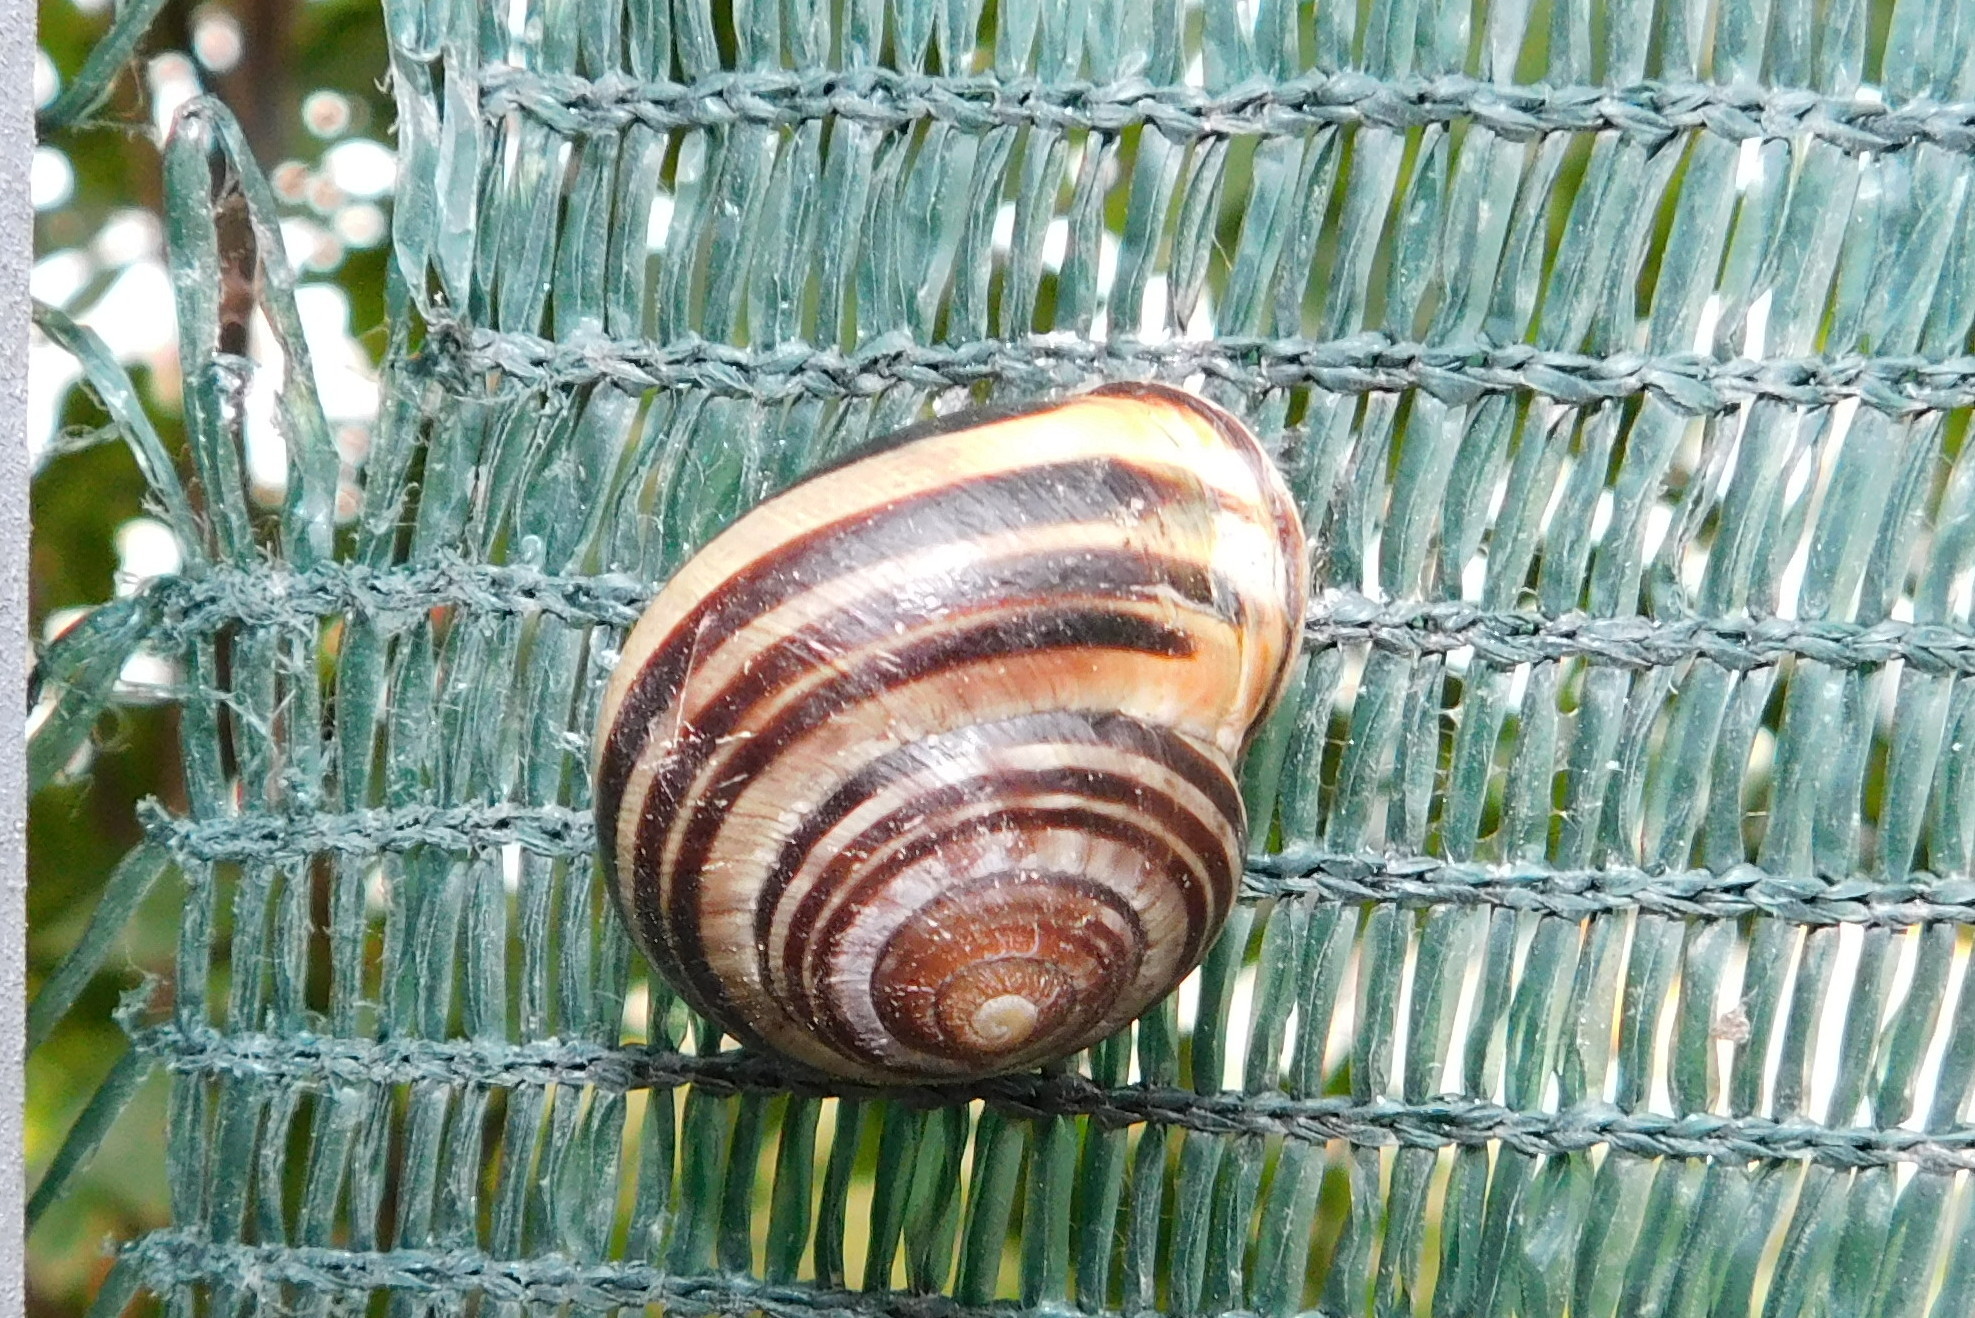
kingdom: Animalia
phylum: Mollusca
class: Gastropoda
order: Stylommatophora
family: Helicidae
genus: Cepaea
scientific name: Cepaea nemoralis
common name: Grovesnail
